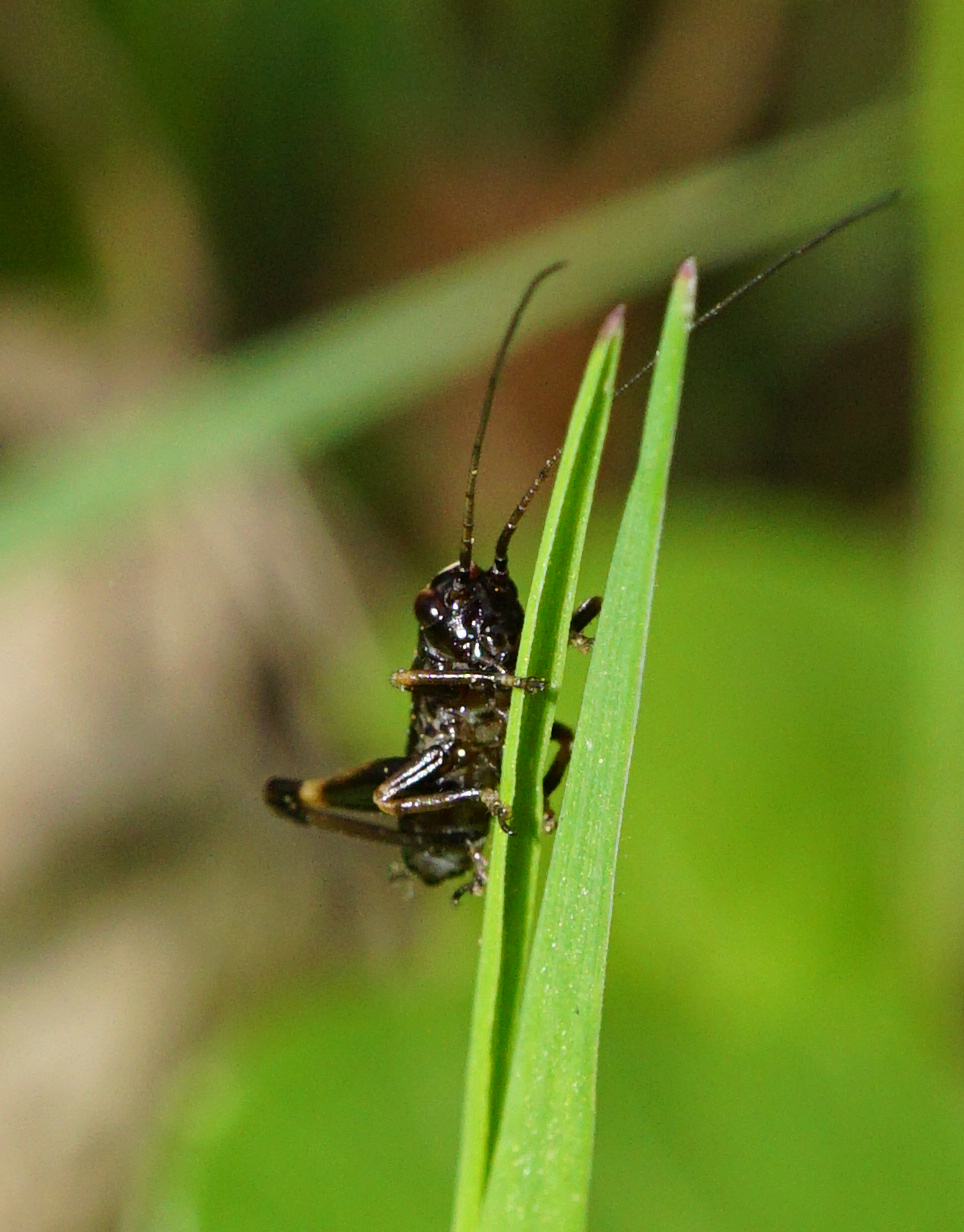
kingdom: Animalia
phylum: Arthropoda
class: Insecta
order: Orthoptera
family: Tettigoniidae
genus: Pholidoptera
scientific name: Pholidoptera griseoaptera
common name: Dark bush-cricket
